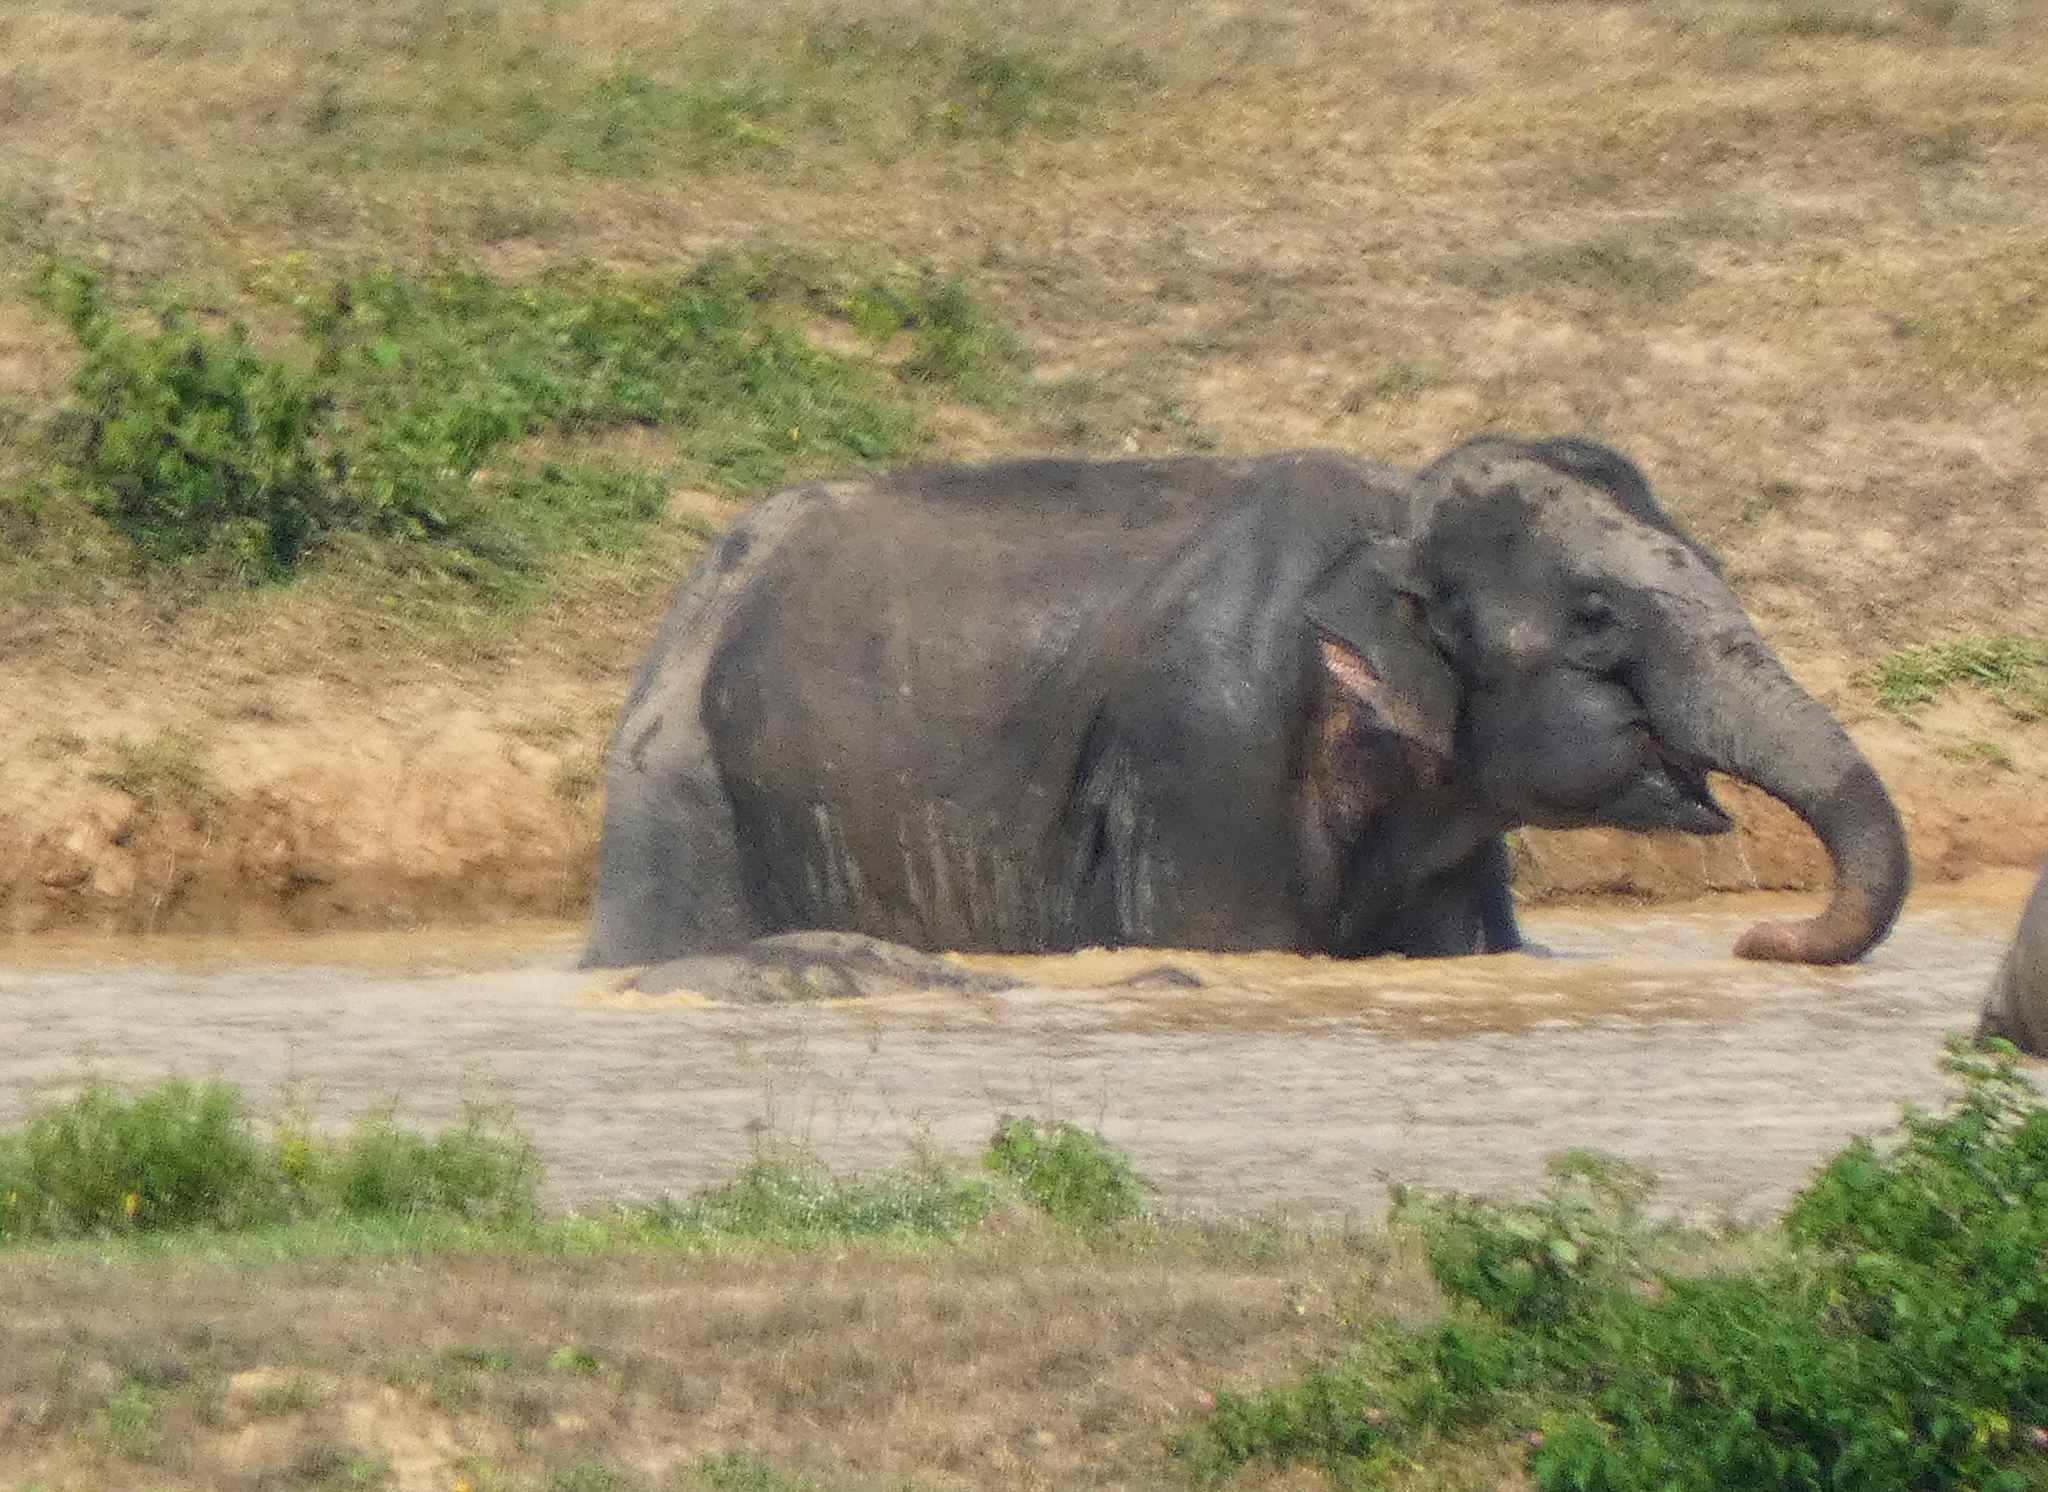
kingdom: Animalia
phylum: Chordata
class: Mammalia
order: Proboscidea
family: Elephantidae
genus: Elephas
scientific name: Elephas maximus
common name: Asian elephant
